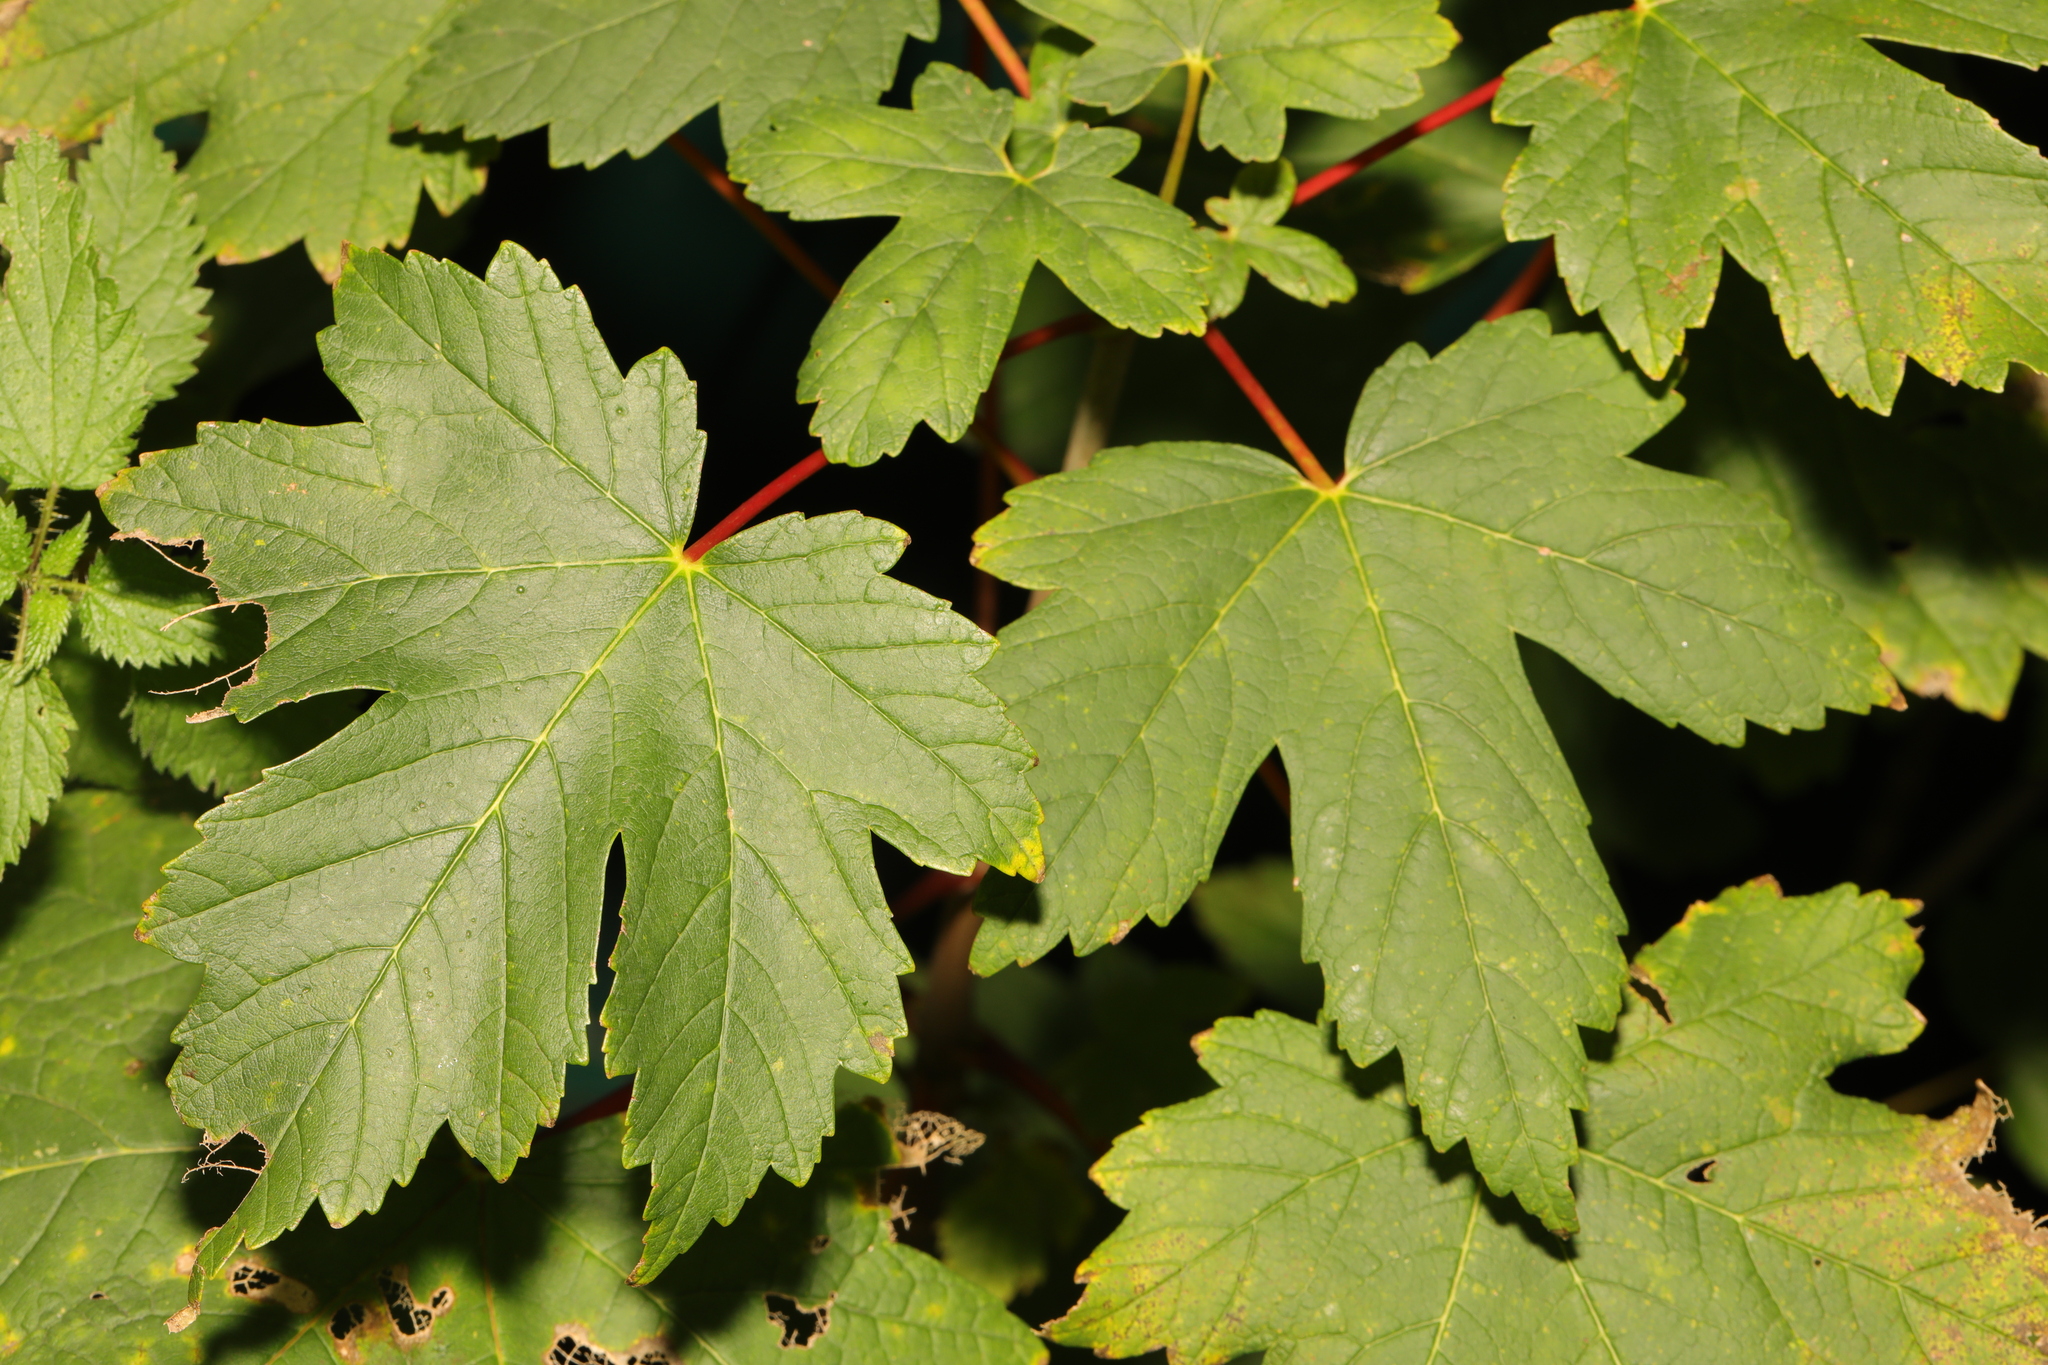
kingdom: Plantae
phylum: Tracheophyta
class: Magnoliopsida
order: Sapindales
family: Sapindaceae
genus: Acer
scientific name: Acer pseudoplatanus
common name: Sycamore
